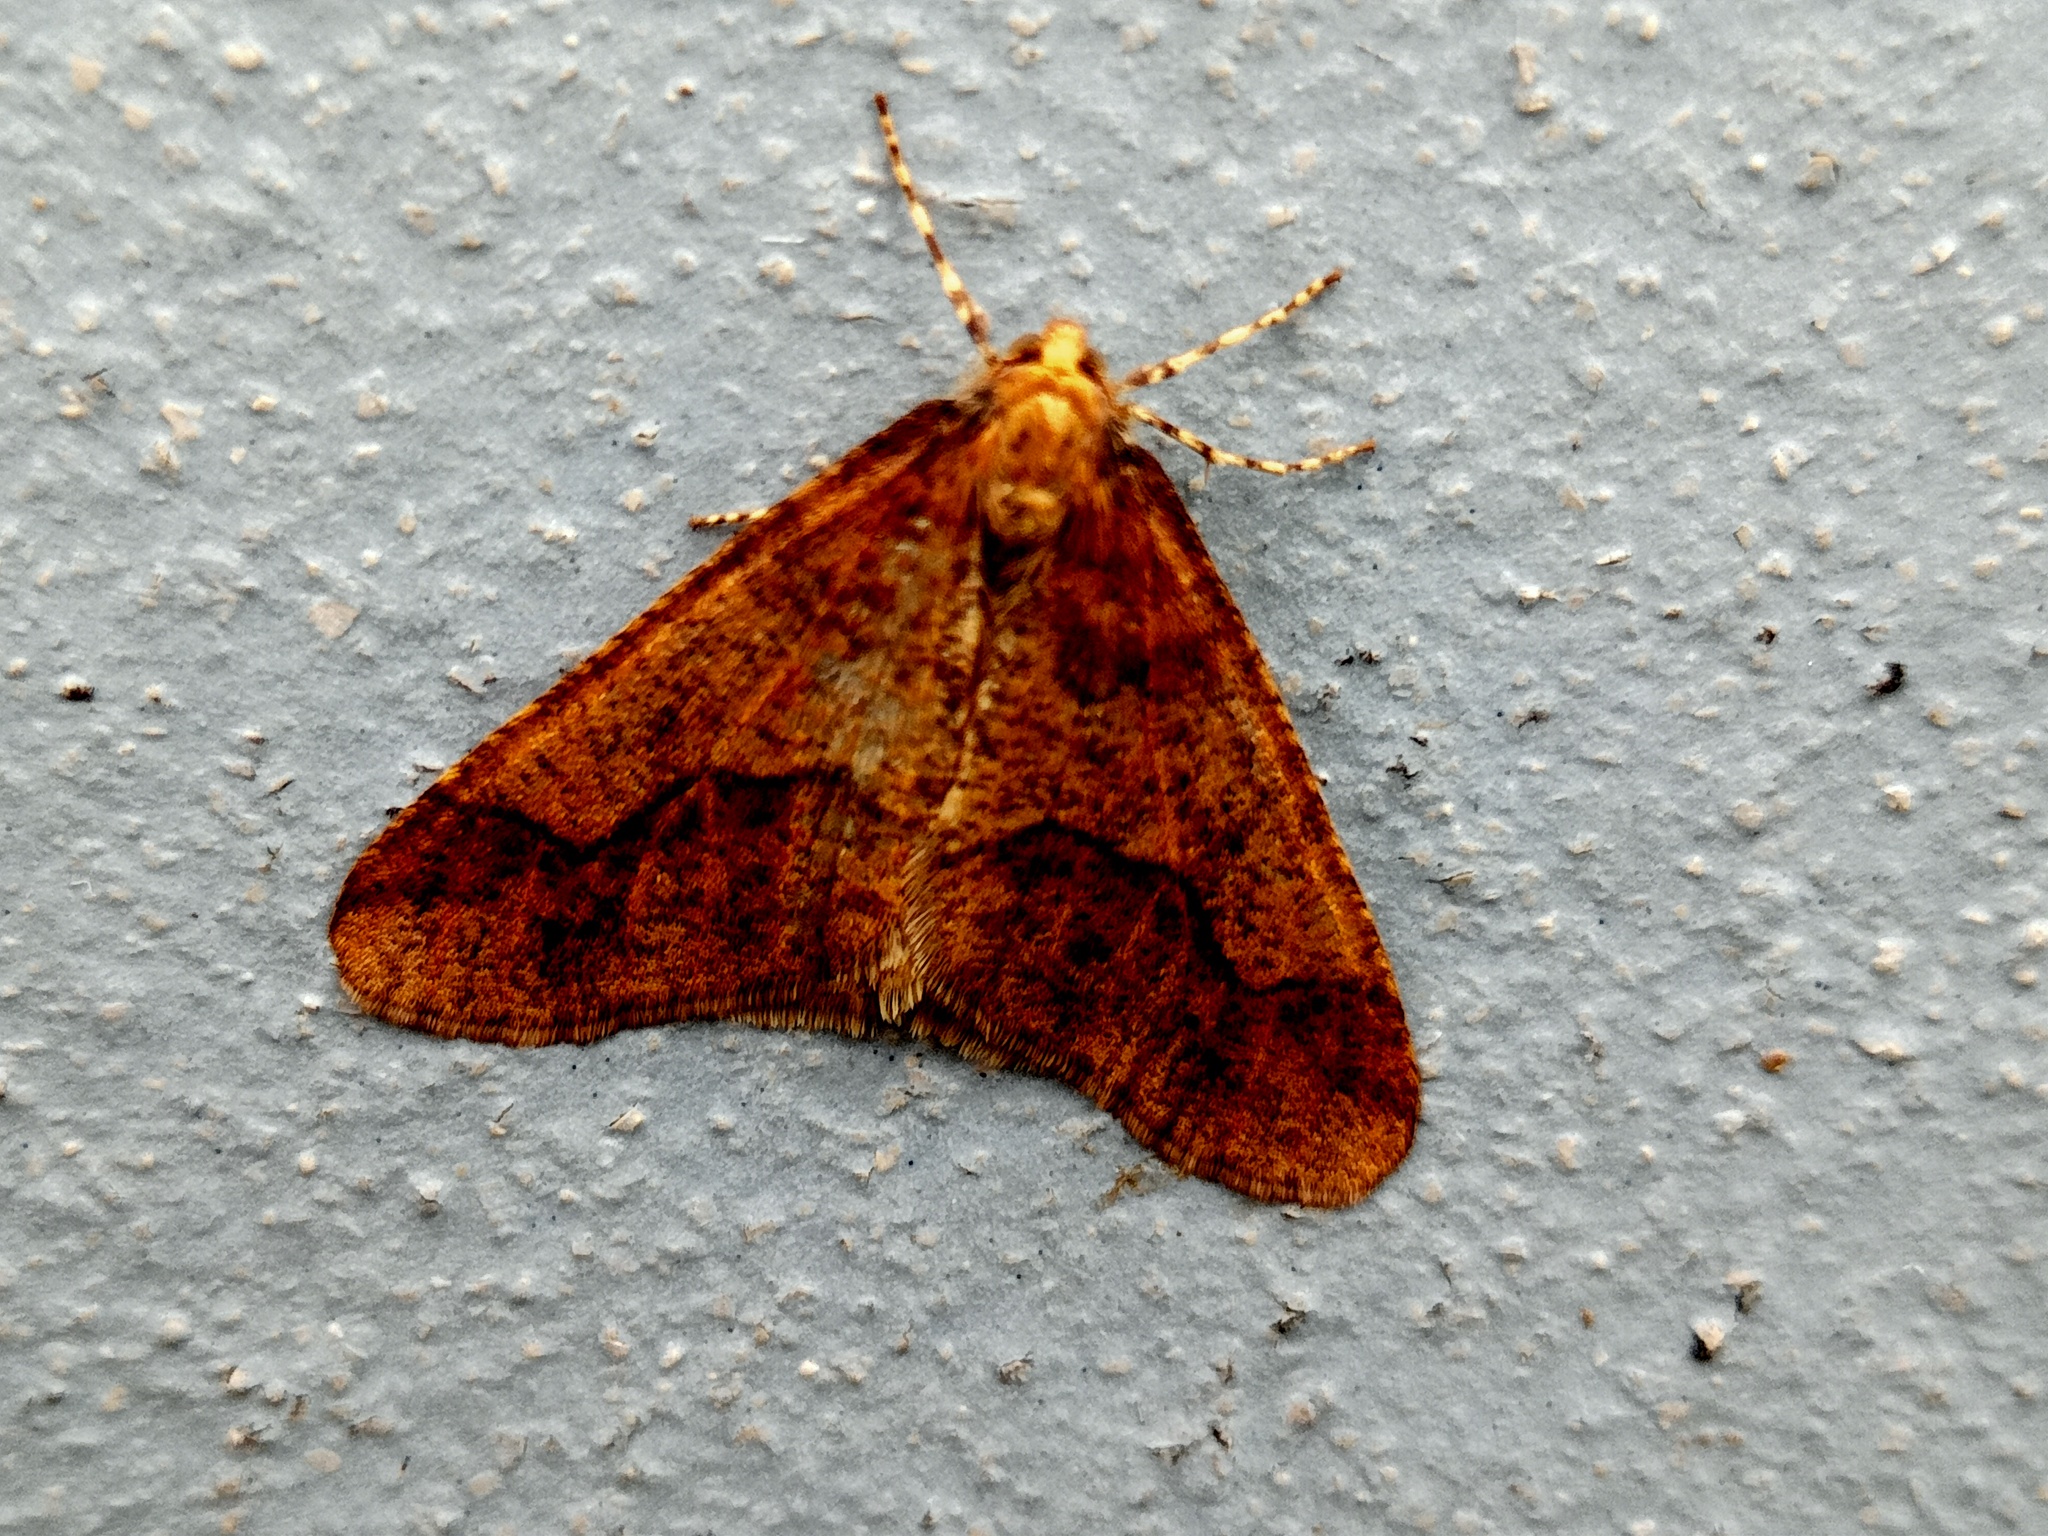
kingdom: Animalia
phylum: Arthropoda
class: Insecta
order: Lepidoptera
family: Geometridae
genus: Erannis
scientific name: Erannis defoliaria
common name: Mottled umber
